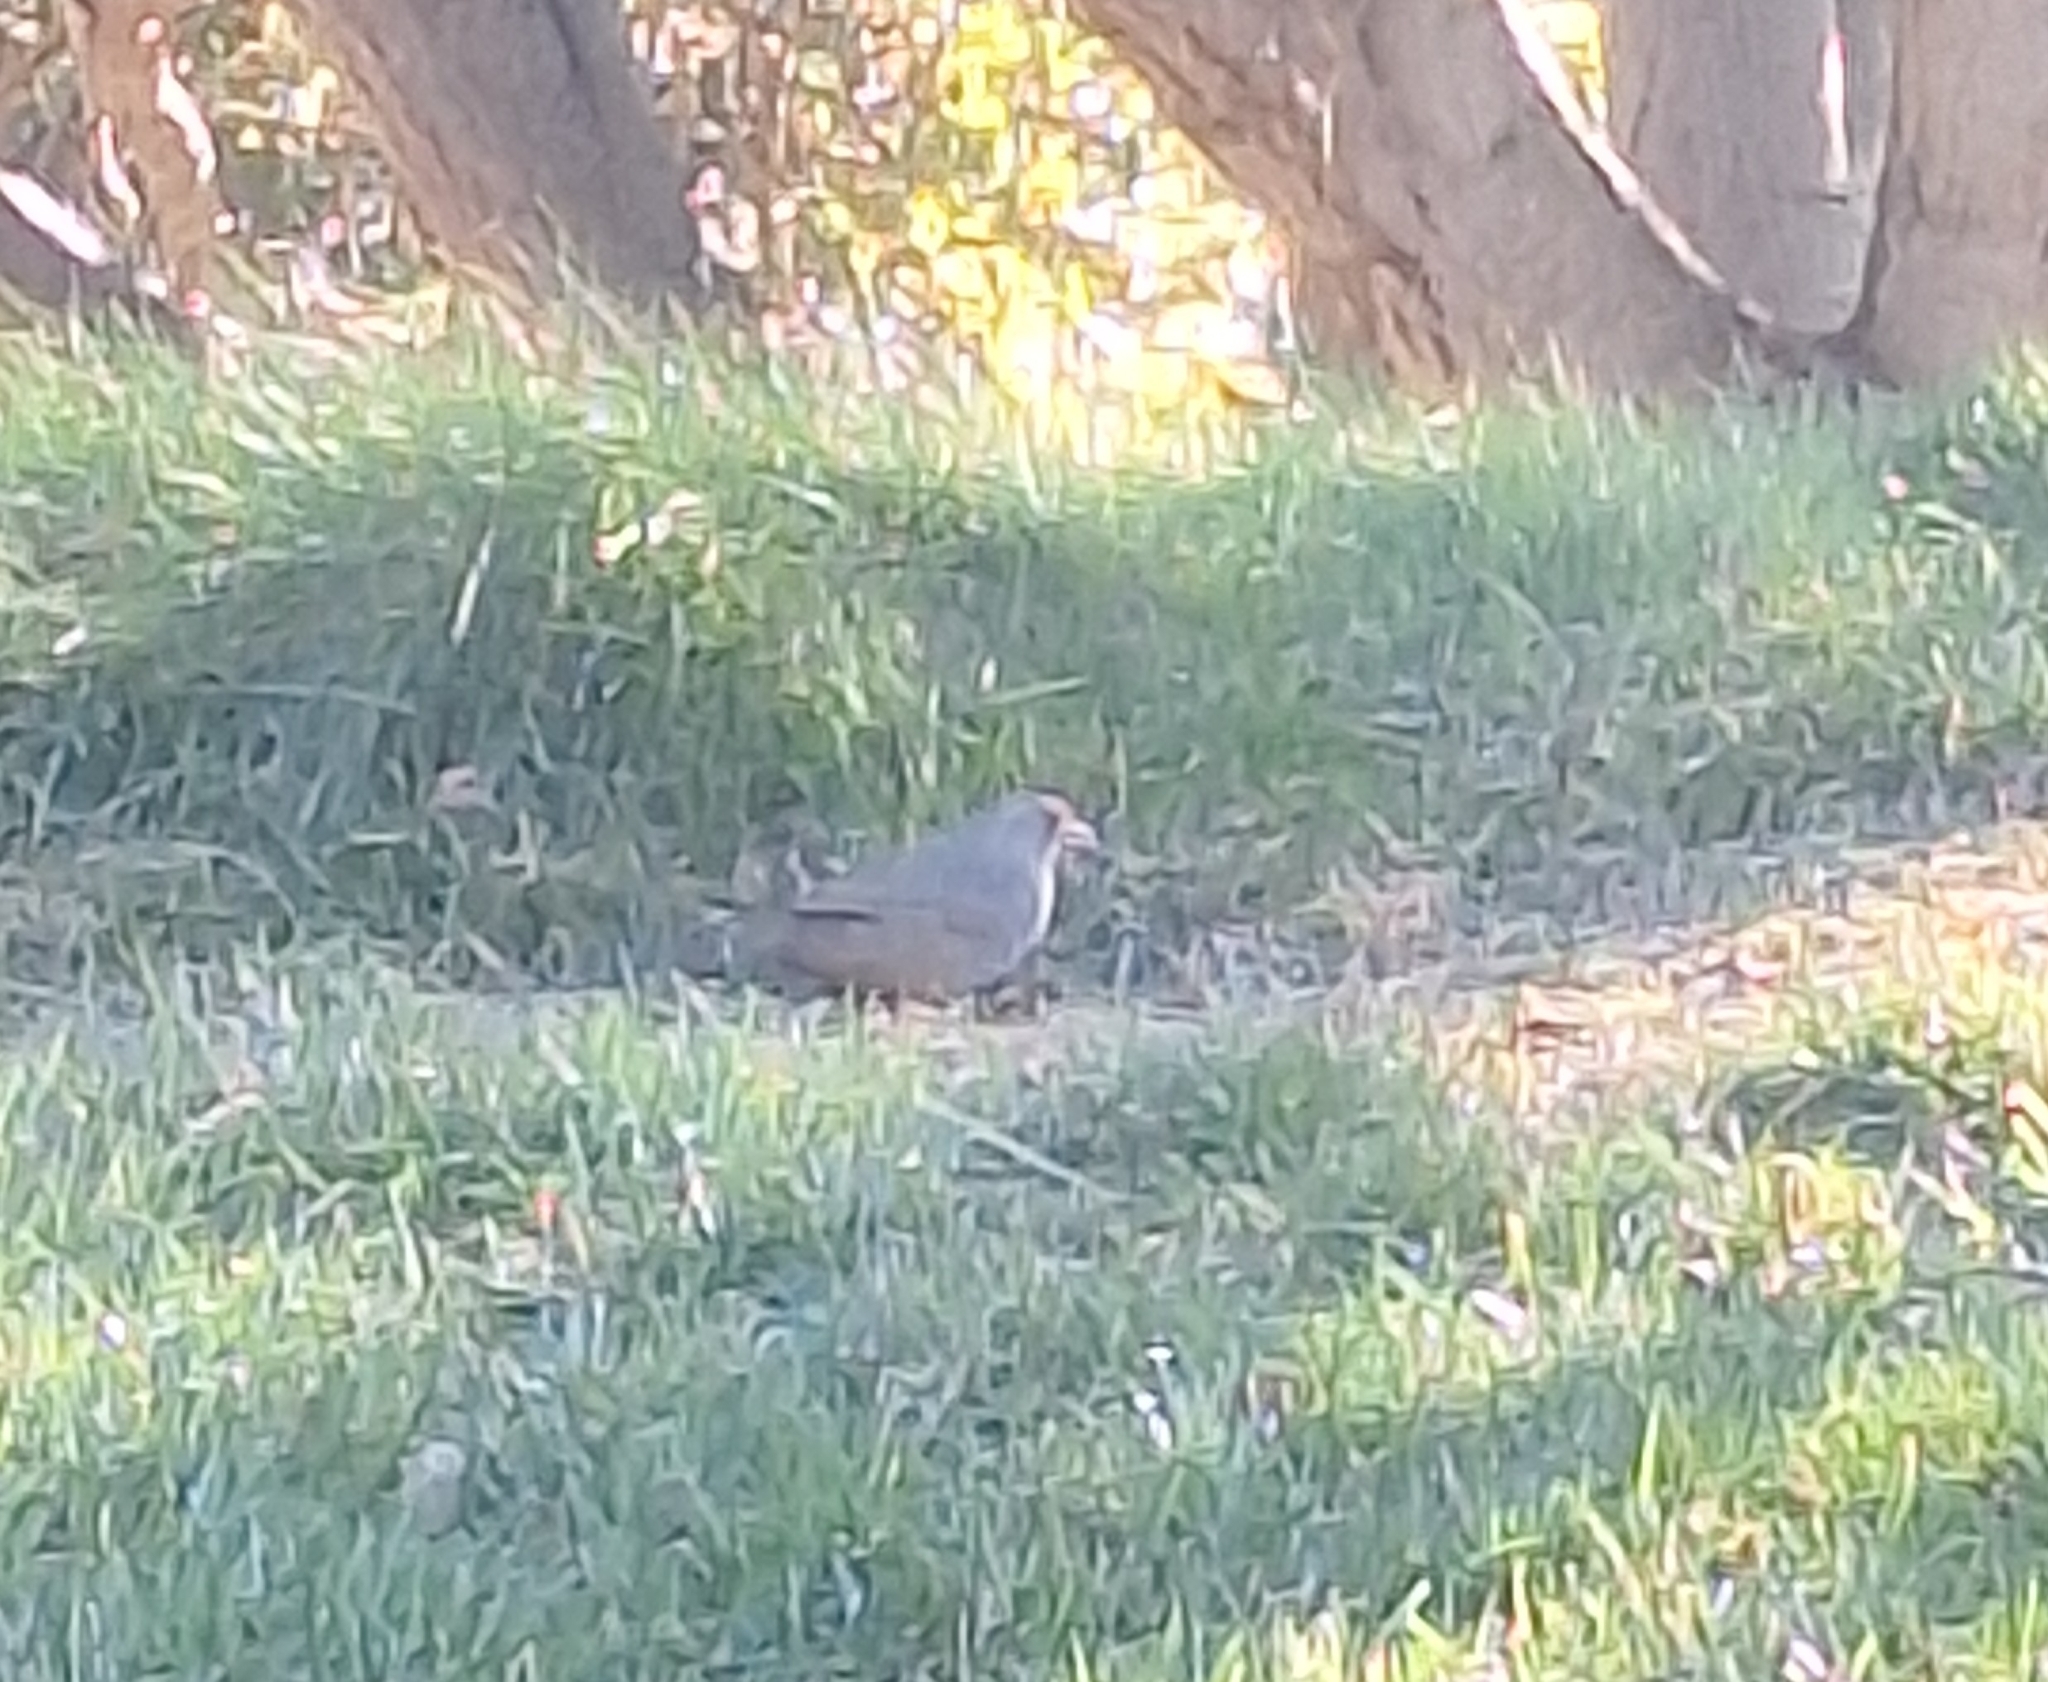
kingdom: Animalia
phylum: Chordata
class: Aves
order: Passeriformes
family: Passerellidae
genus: Melozone
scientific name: Melozone crissalis
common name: California towhee
